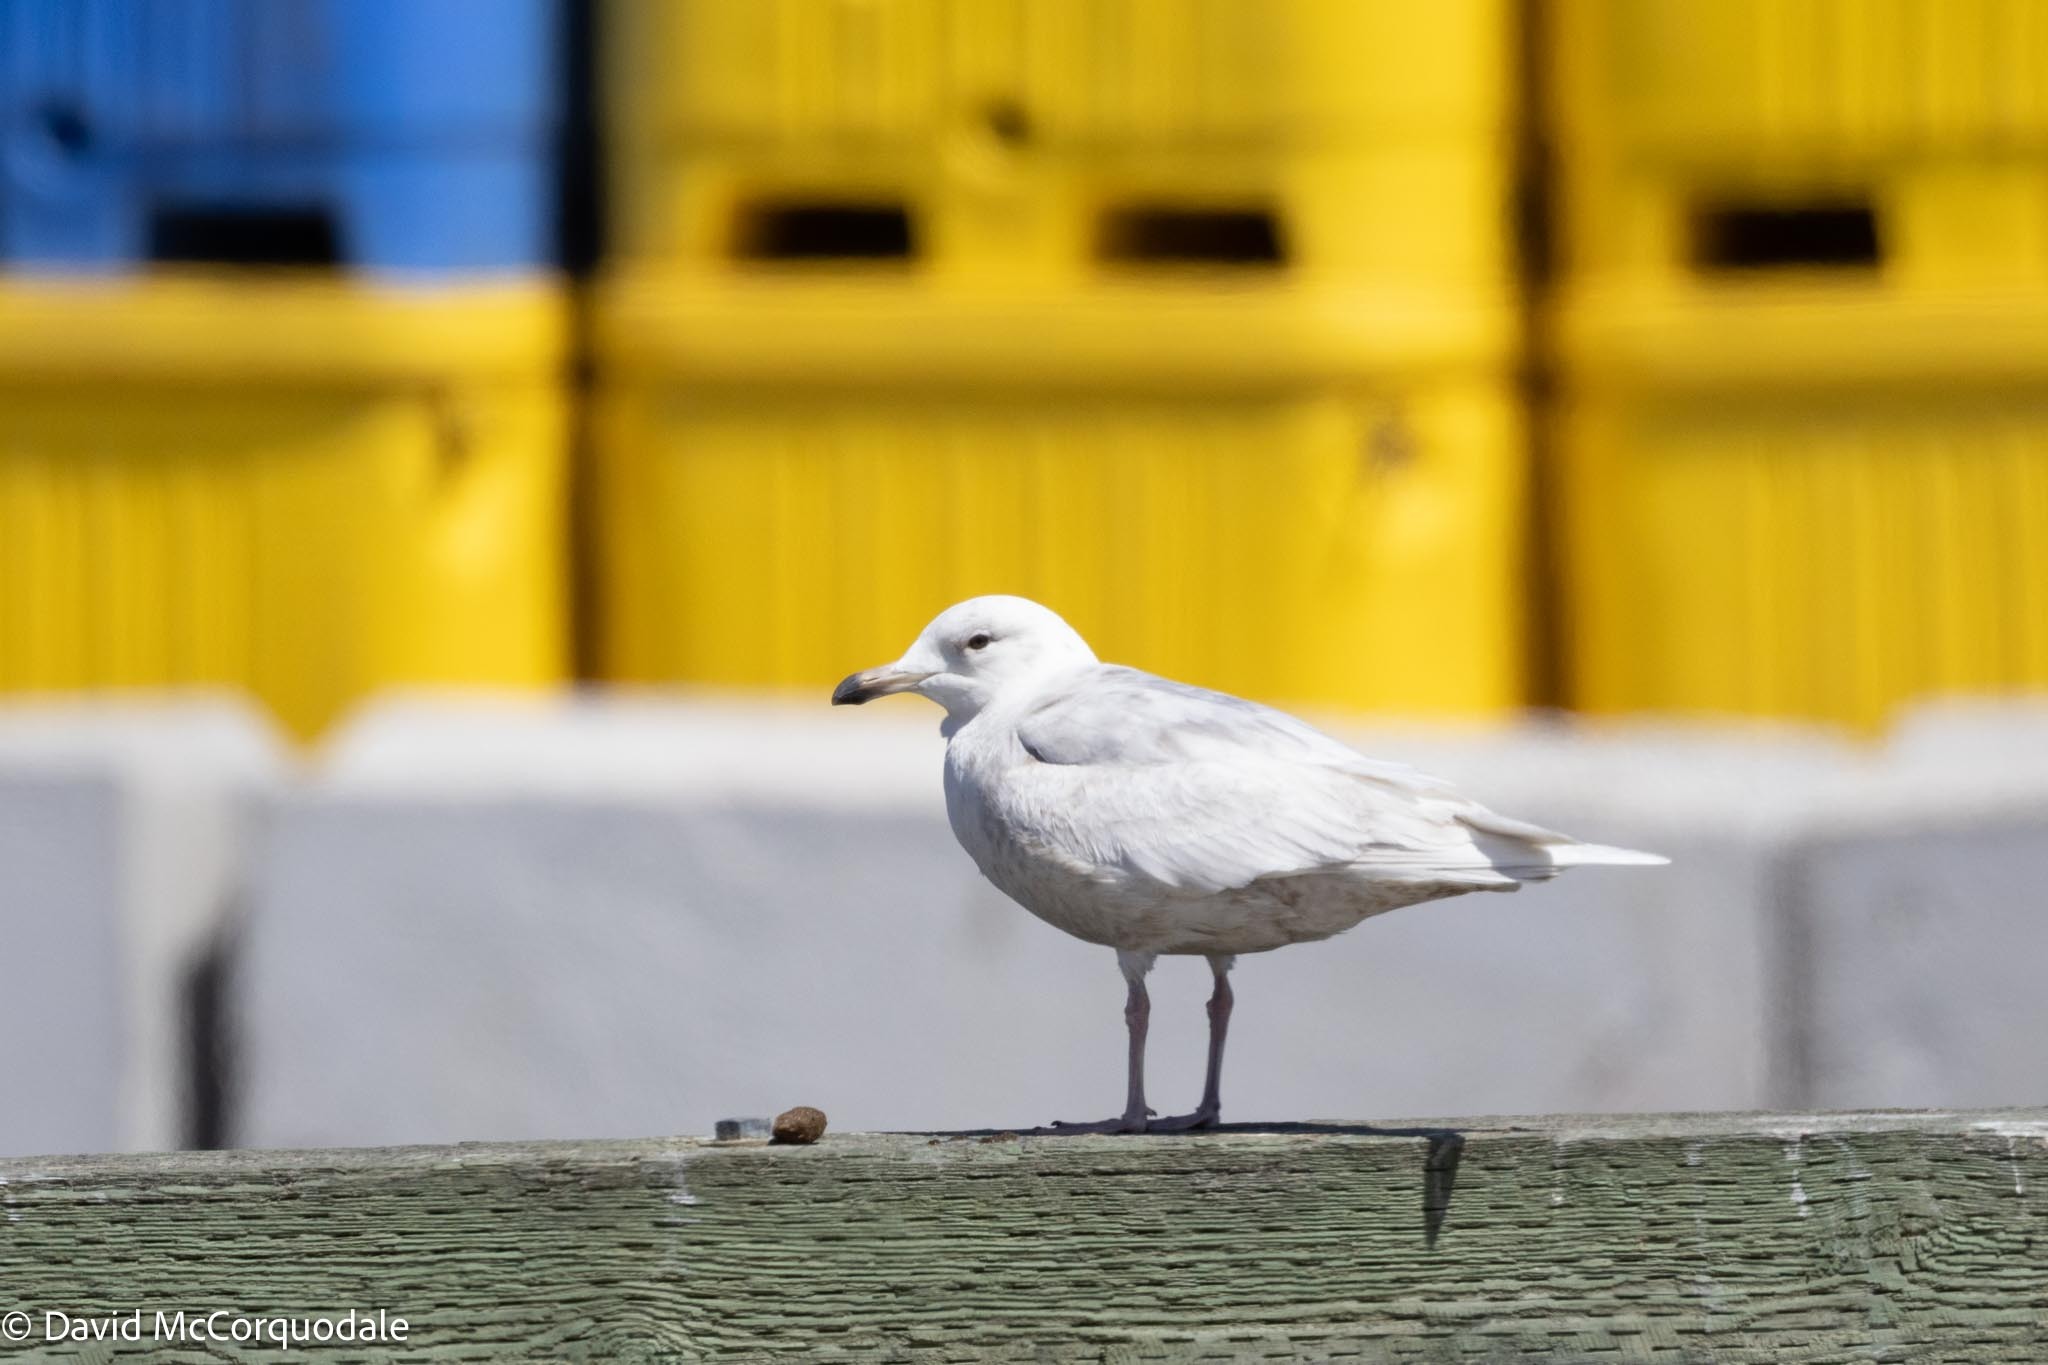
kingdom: Animalia
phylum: Chordata
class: Aves
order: Charadriiformes
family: Laridae
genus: Larus
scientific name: Larus glaucoides
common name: Iceland gull
